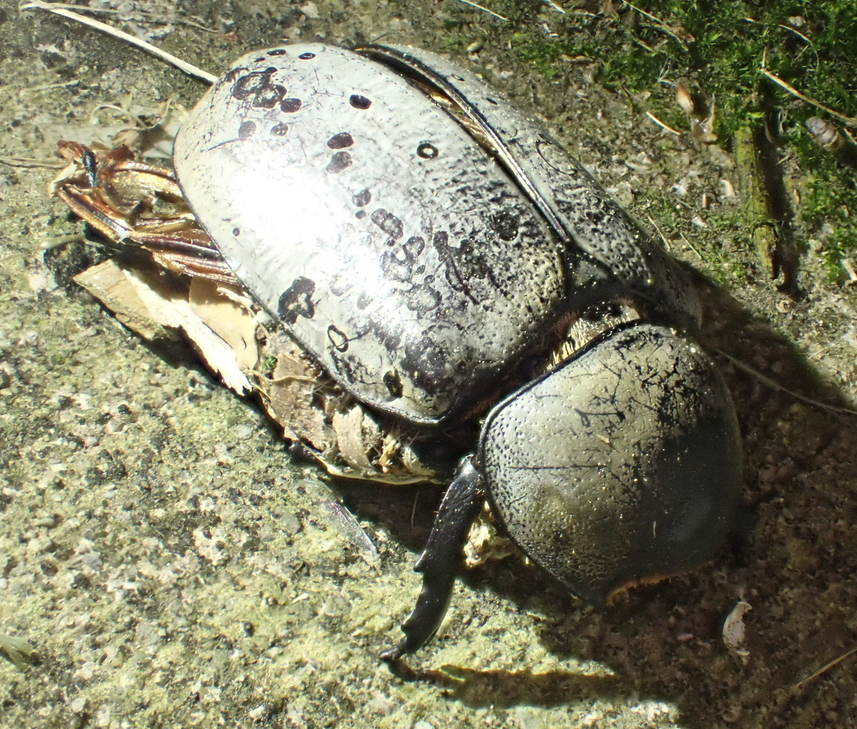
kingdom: Animalia
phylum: Arthropoda
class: Insecta
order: Coleoptera
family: Scarabaeidae
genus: Dynastes
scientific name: Dynastes tityus
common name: Eastern hercules beetle
